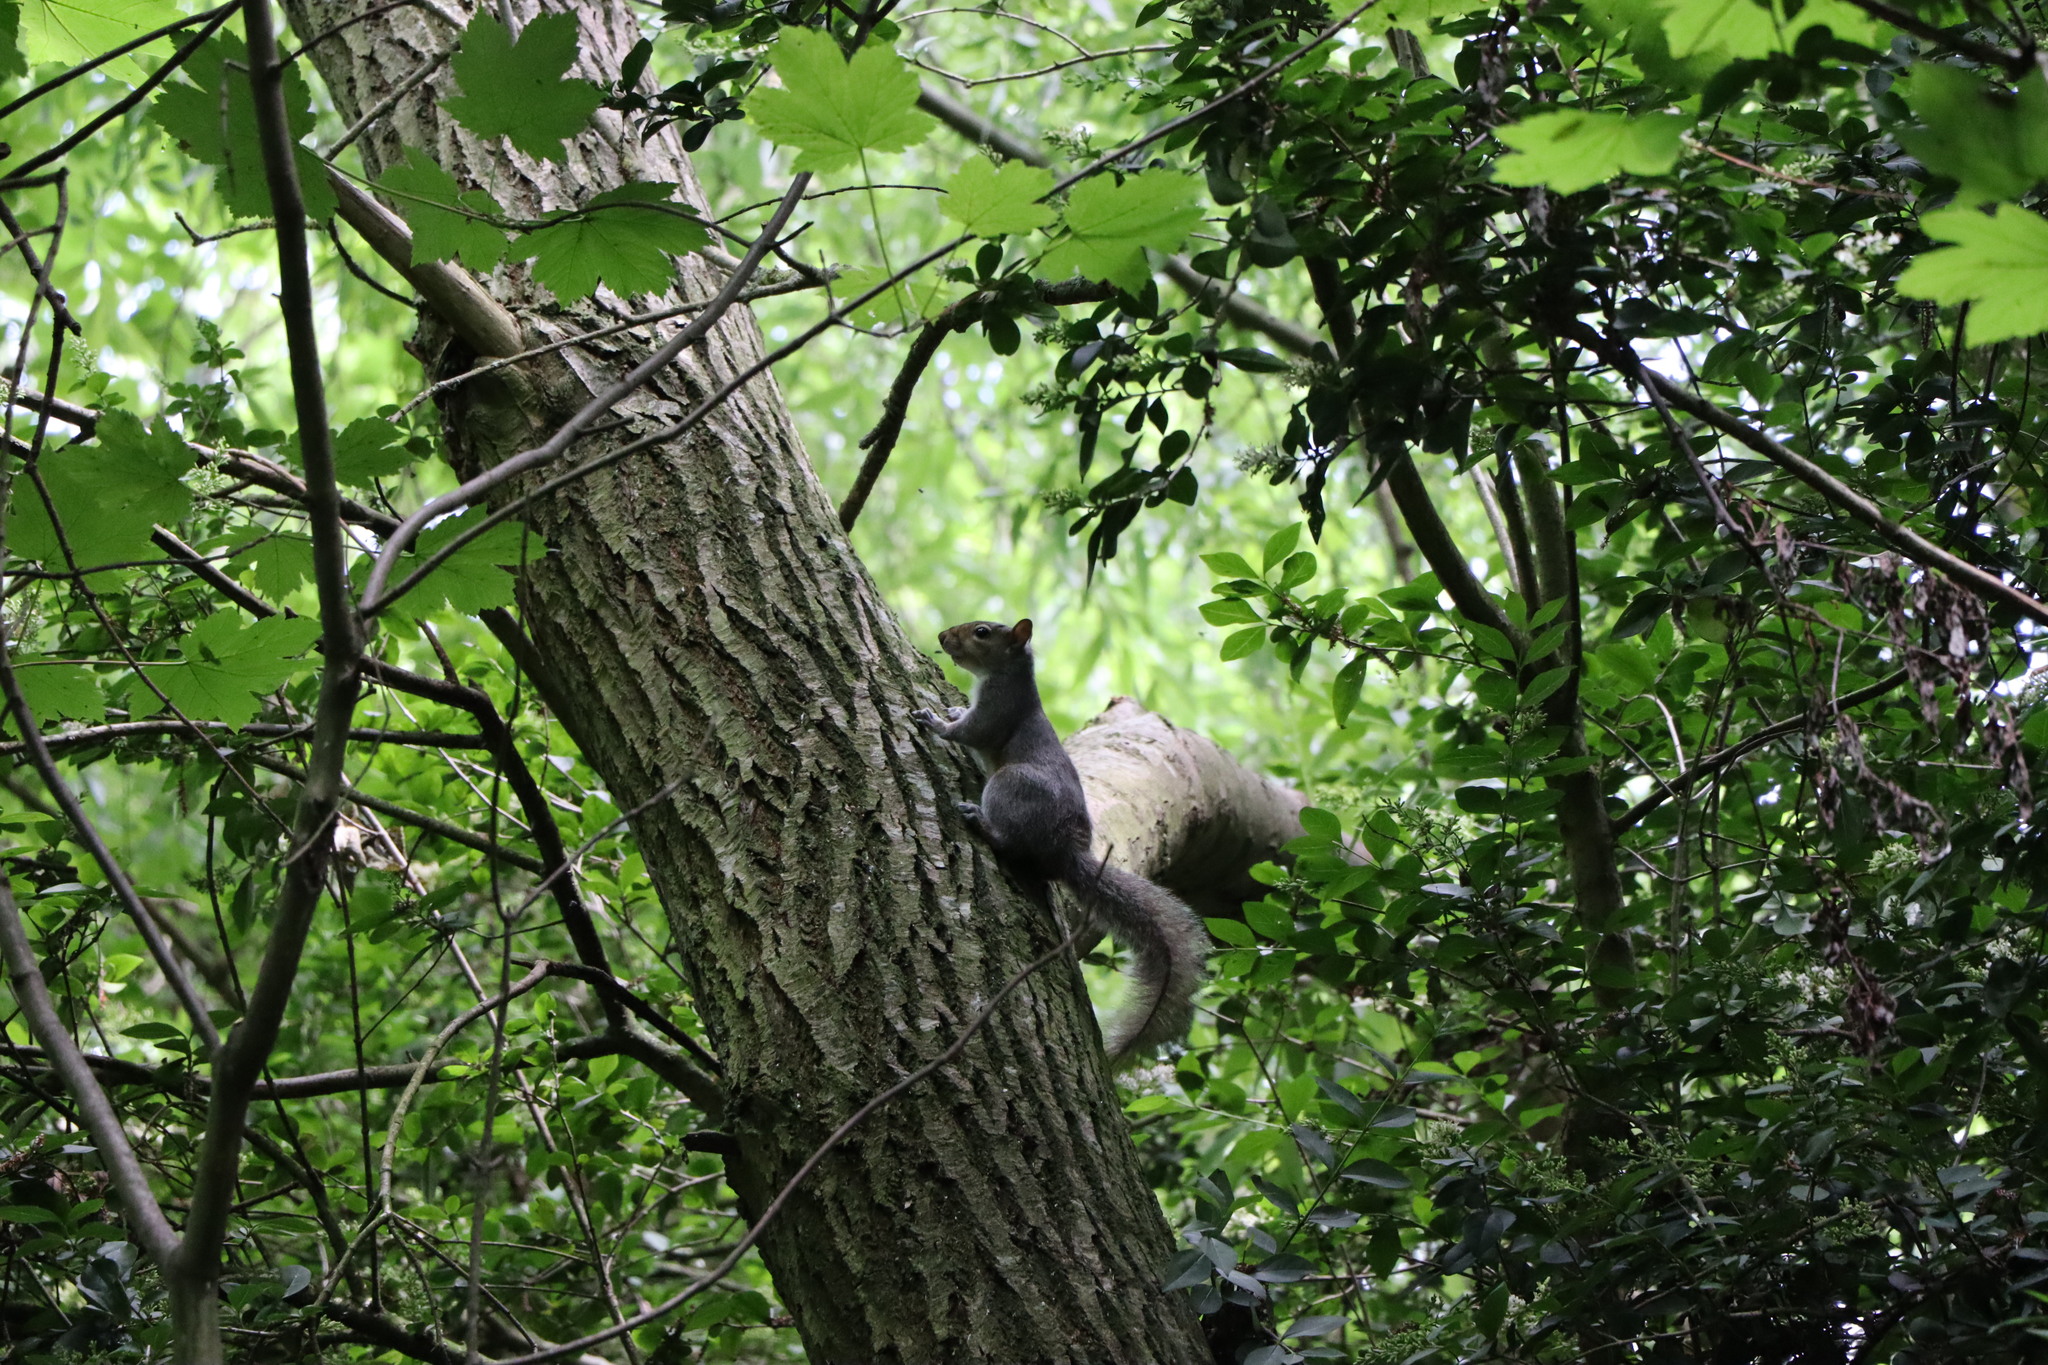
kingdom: Animalia
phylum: Chordata
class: Mammalia
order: Rodentia
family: Sciuridae
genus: Sciurus
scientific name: Sciurus carolinensis
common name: Eastern gray squirrel
